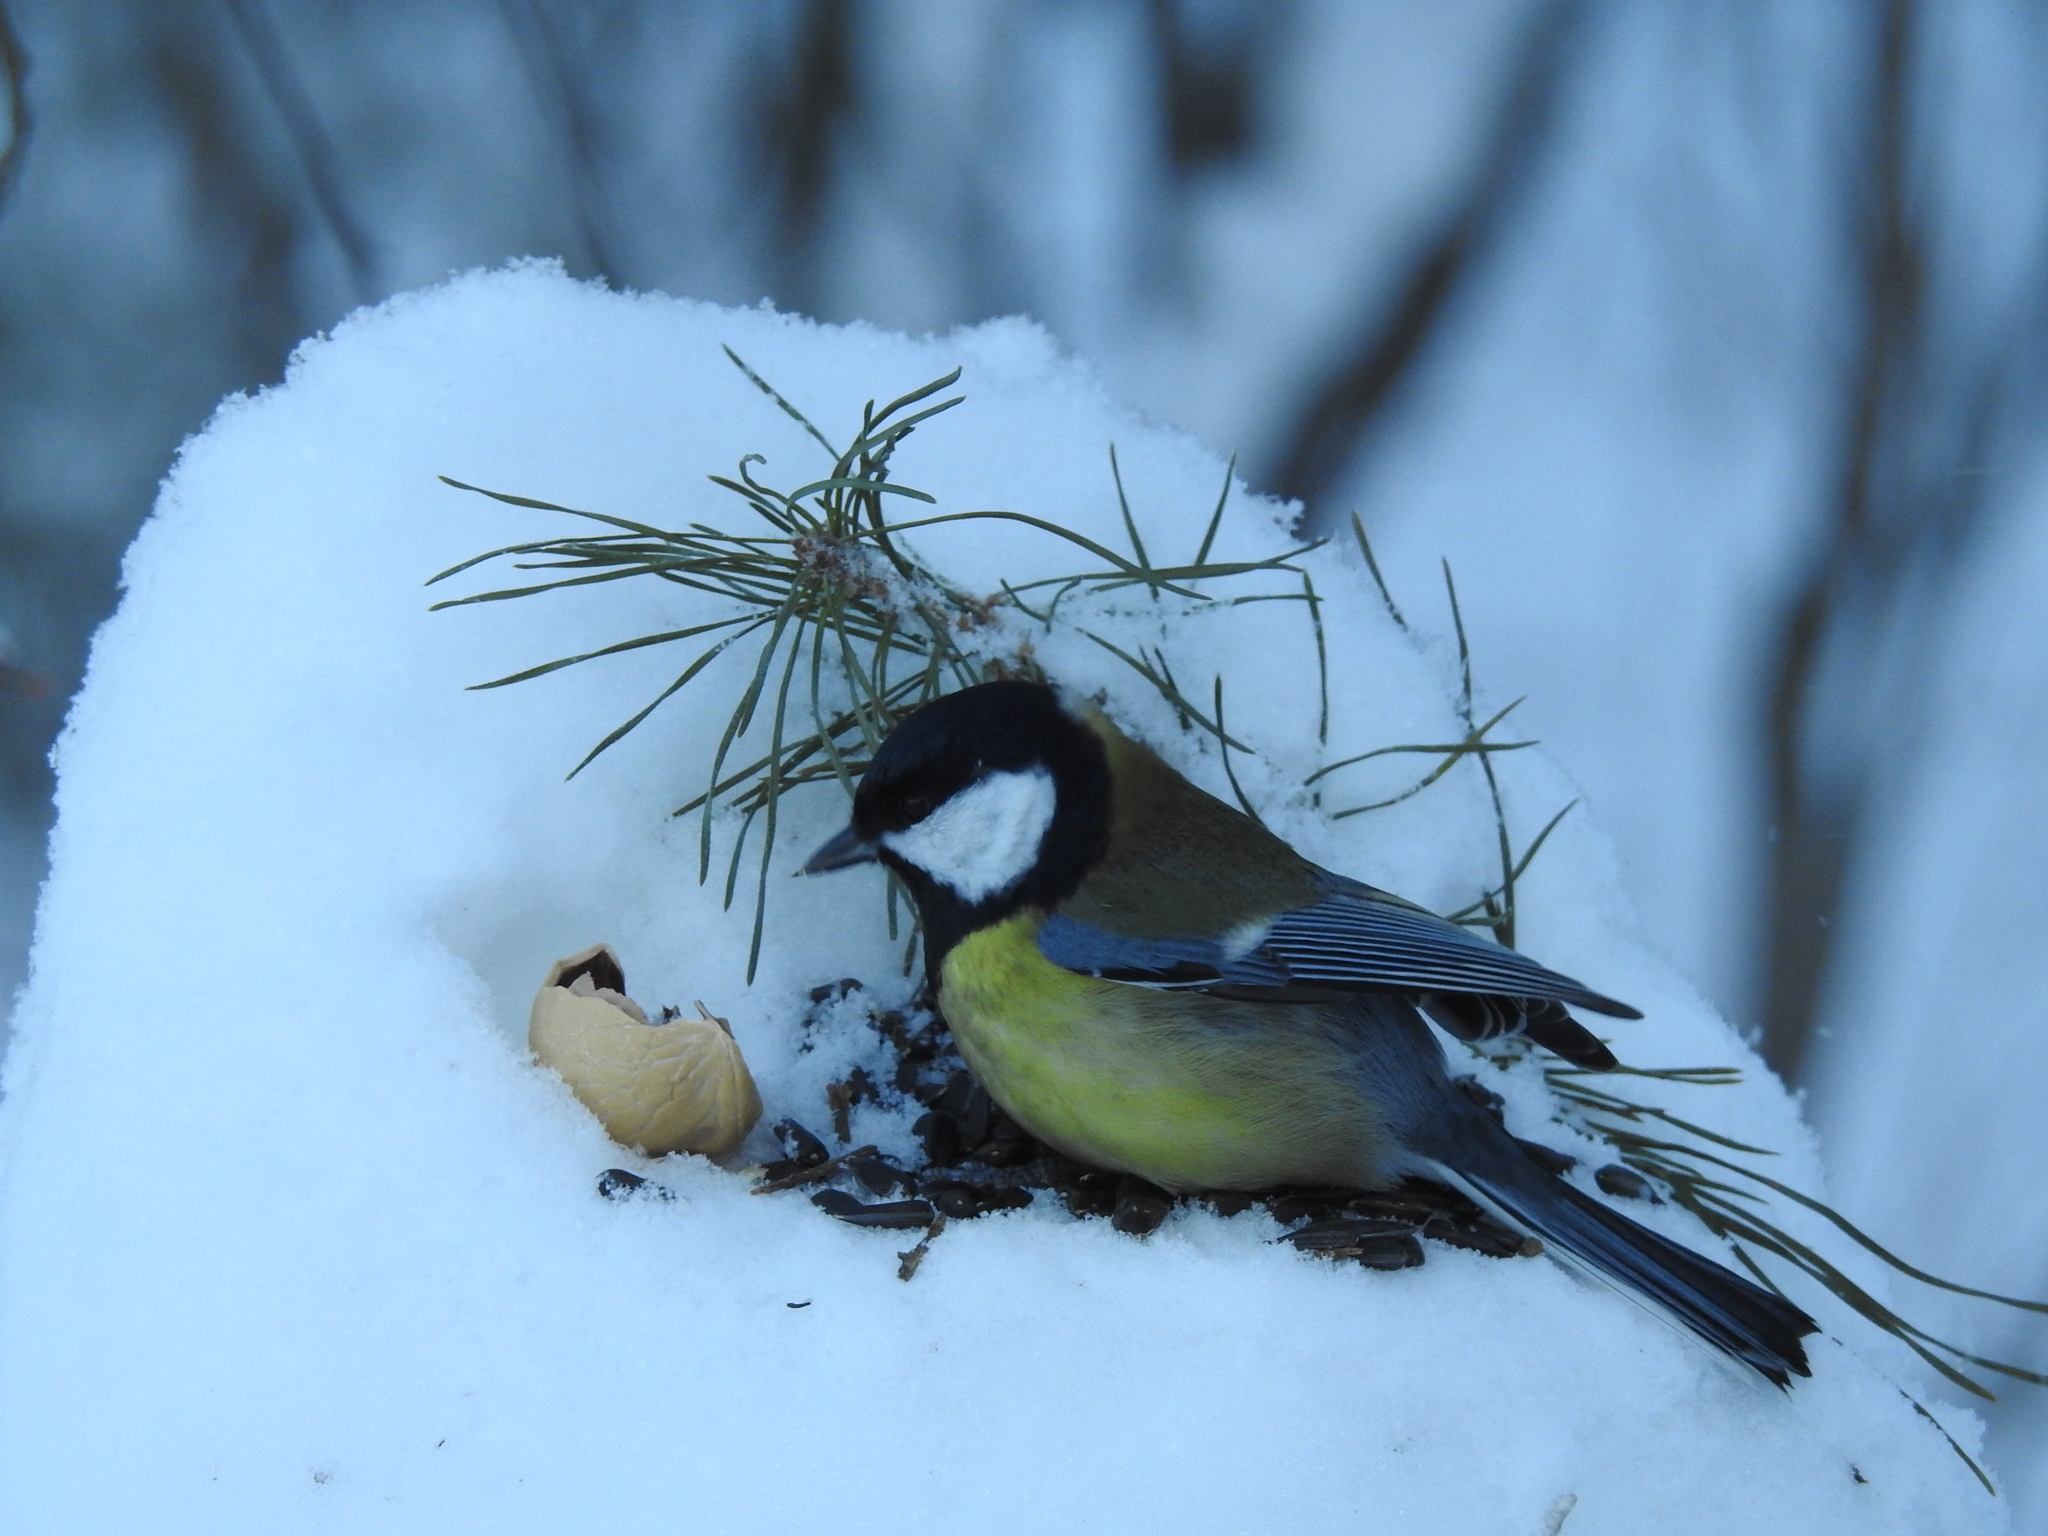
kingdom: Animalia
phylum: Chordata
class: Aves
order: Passeriformes
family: Paridae
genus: Parus
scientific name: Parus major
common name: Great tit
